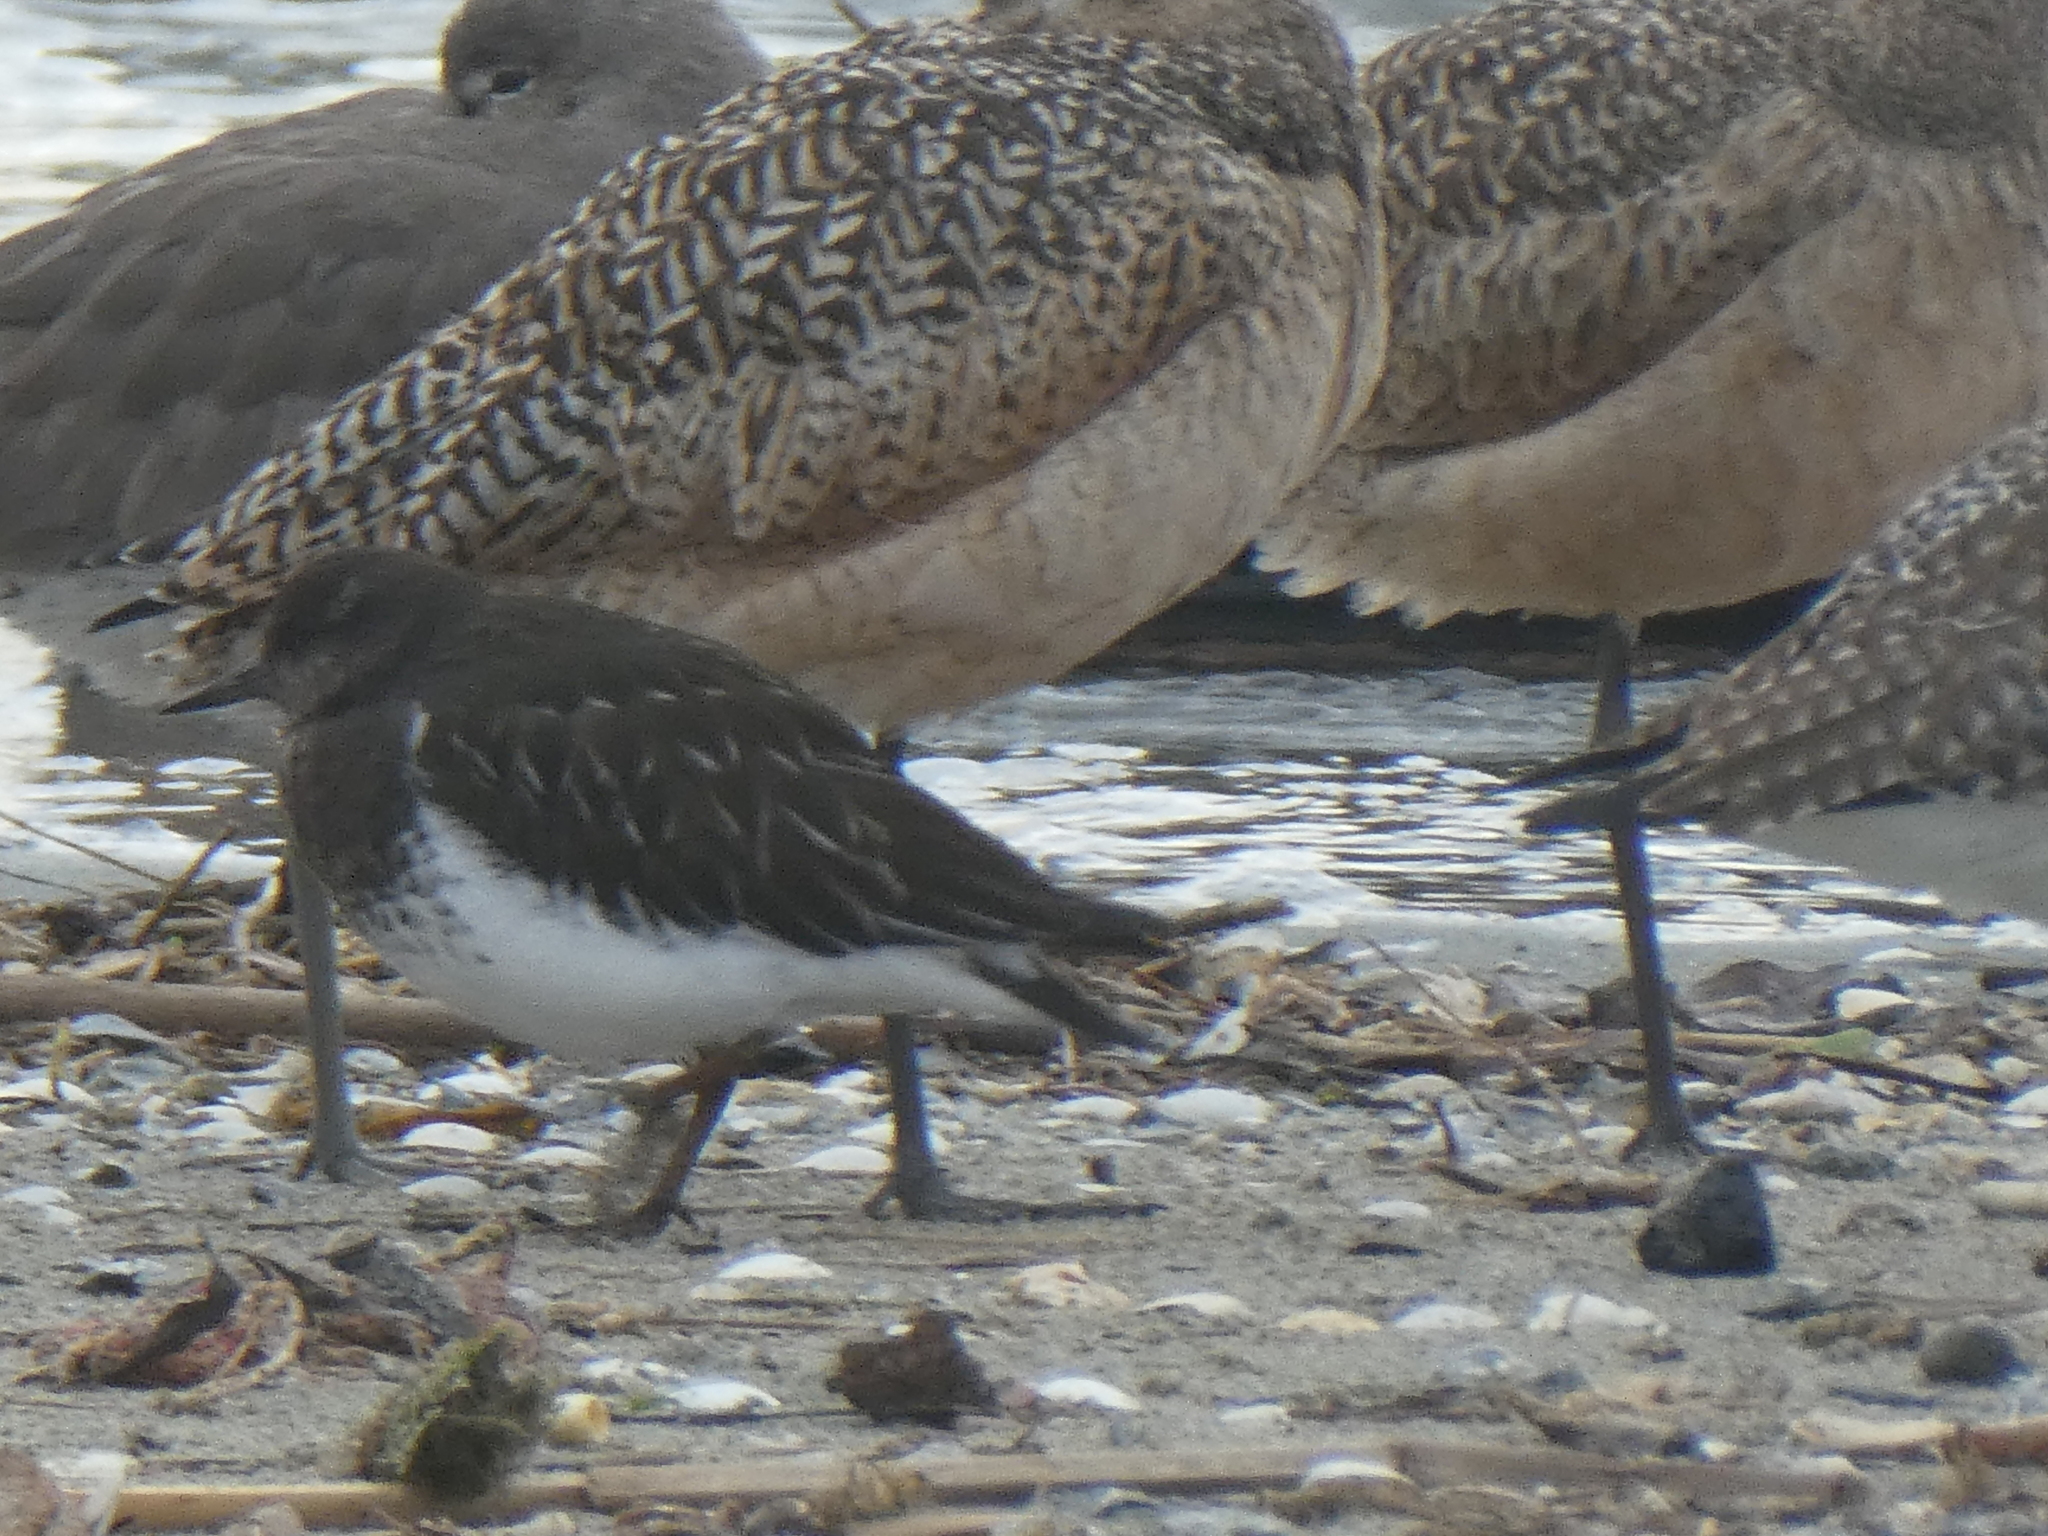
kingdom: Animalia
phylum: Chordata
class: Aves
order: Charadriiformes
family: Scolopacidae
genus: Arenaria
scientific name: Arenaria melanocephala
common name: Black turnstone
